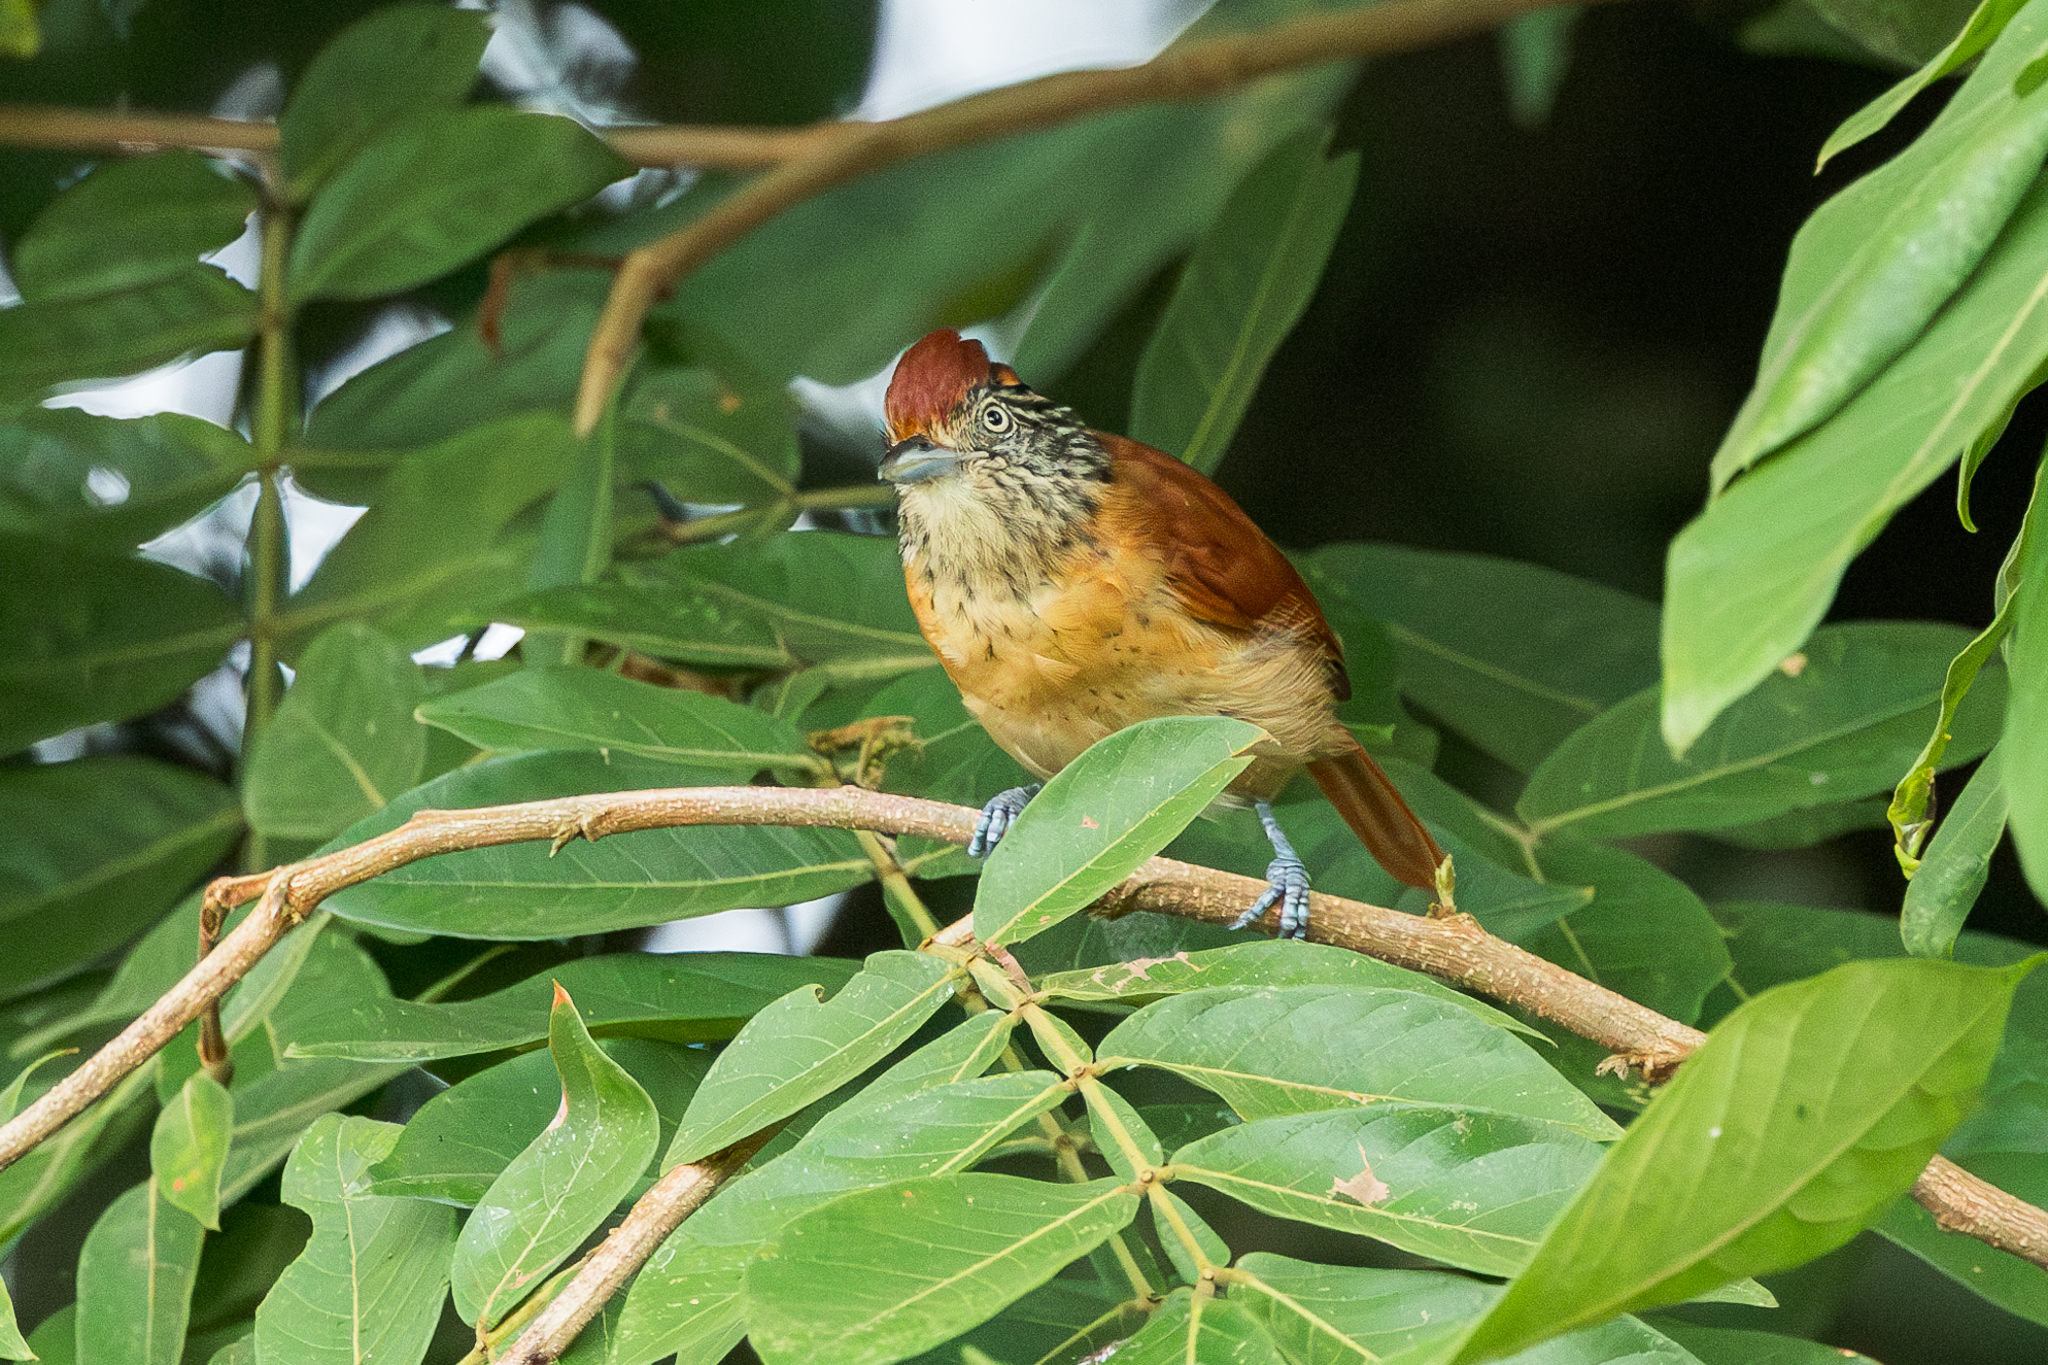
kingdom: Animalia
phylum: Chordata
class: Aves
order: Passeriformes
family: Thamnophilidae
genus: Thamnophilus
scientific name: Thamnophilus doliatus
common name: Barred antshrike
